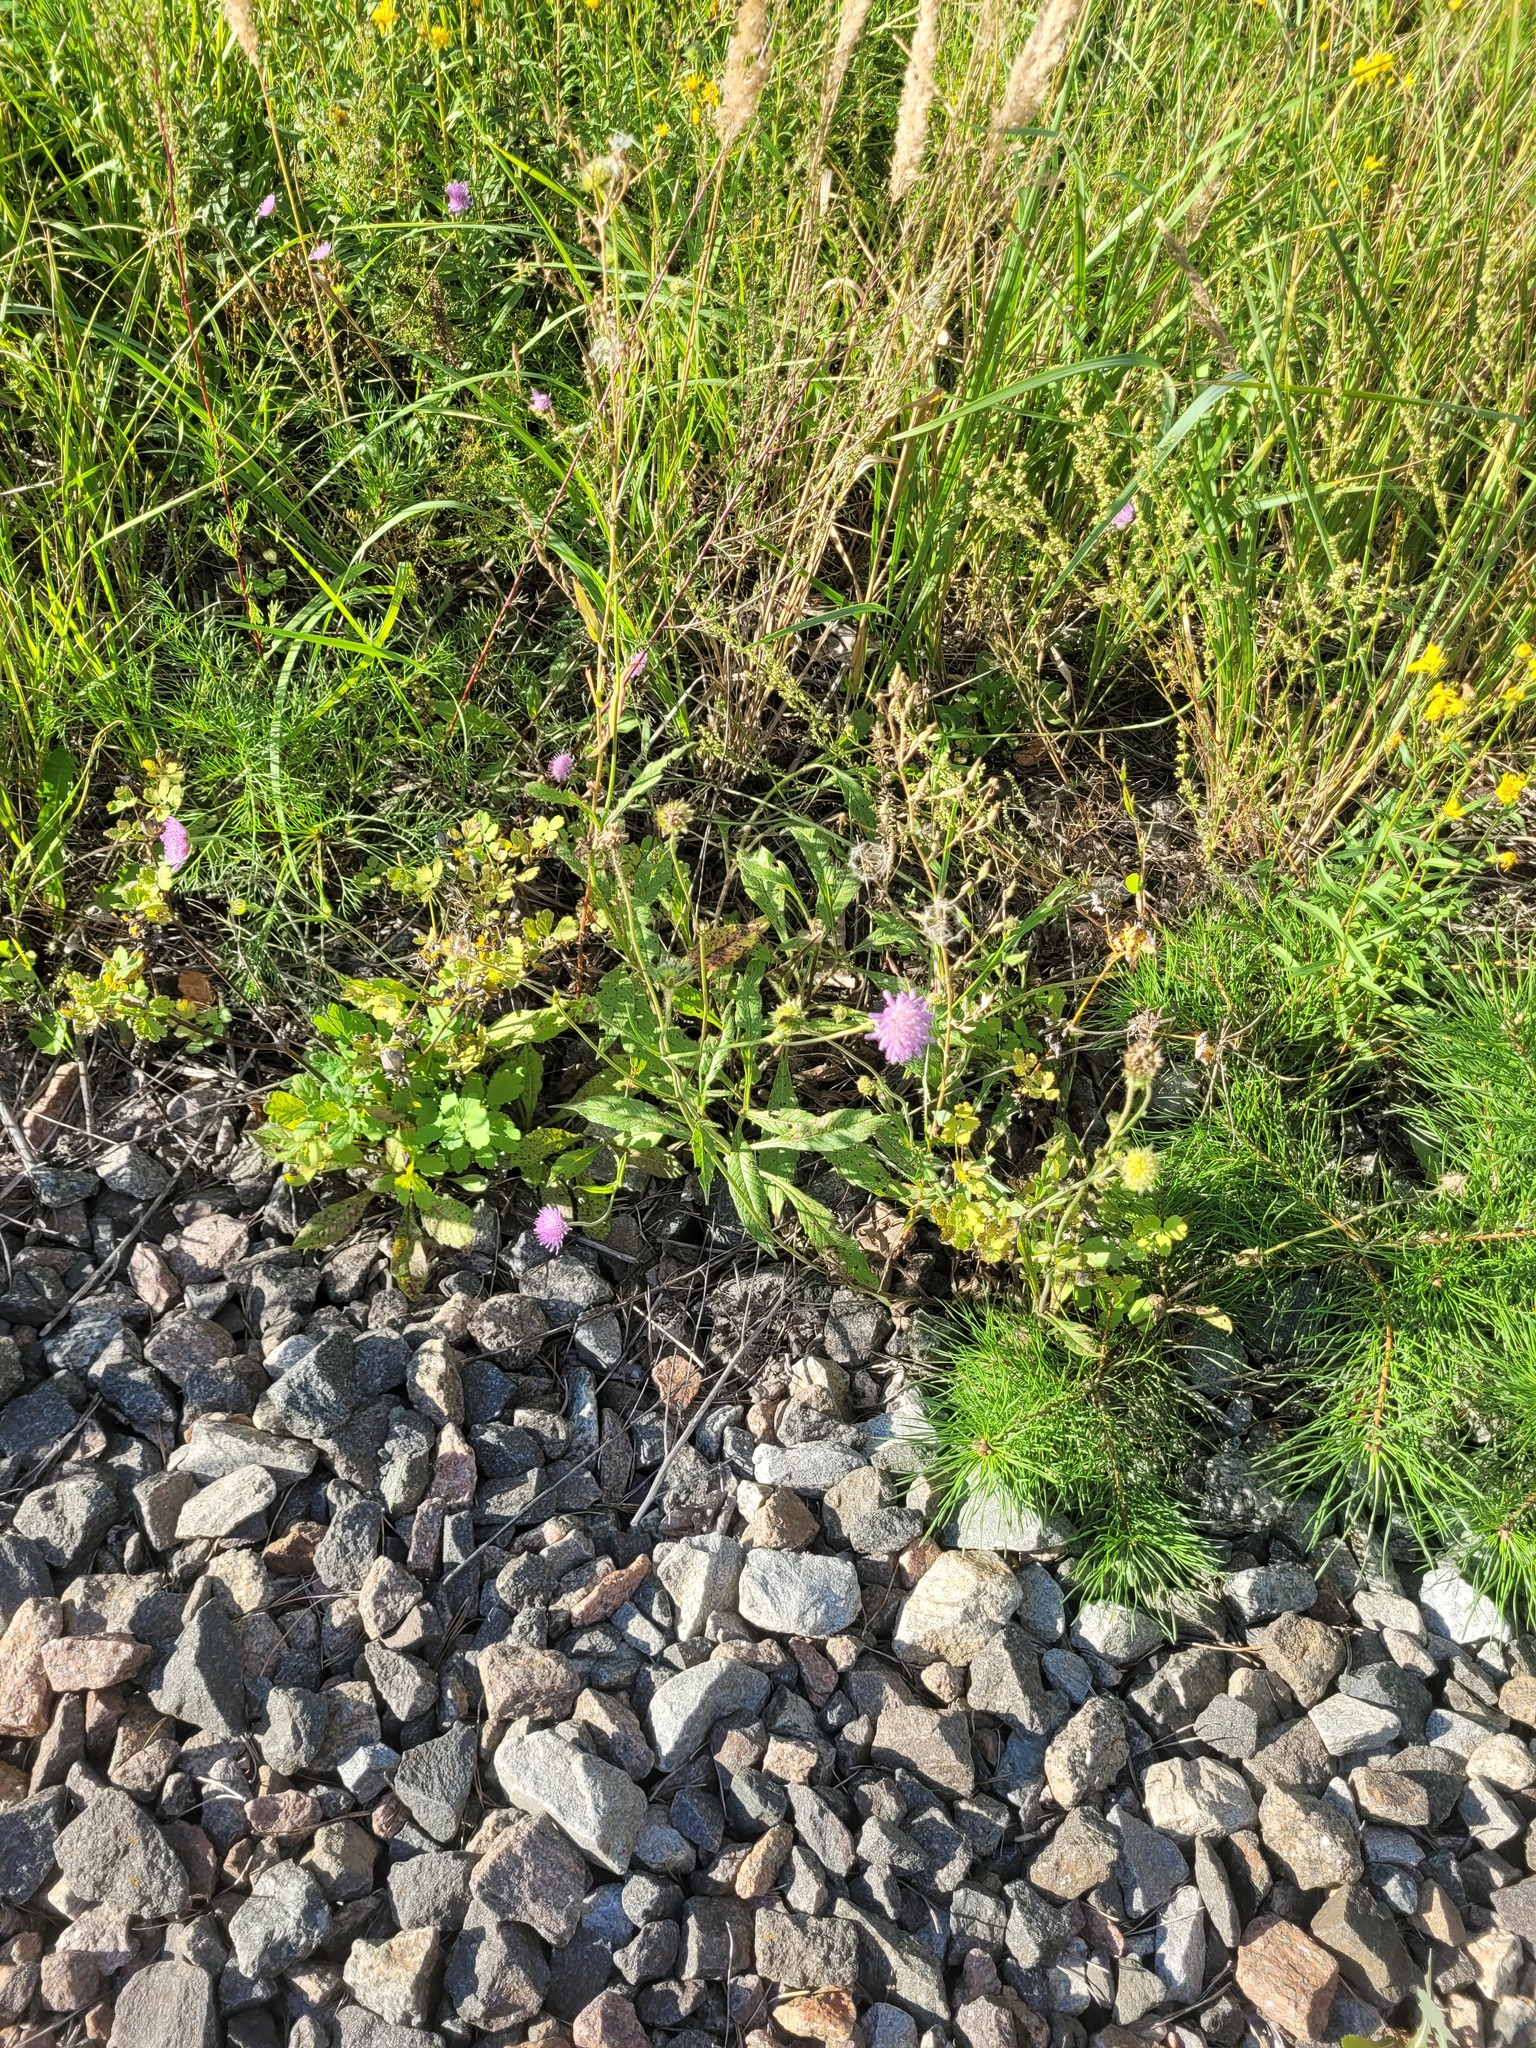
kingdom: Plantae
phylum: Tracheophyta
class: Magnoliopsida
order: Dipsacales
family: Caprifoliaceae
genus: Knautia
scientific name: Knautia arvensis
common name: Field scabiosa
